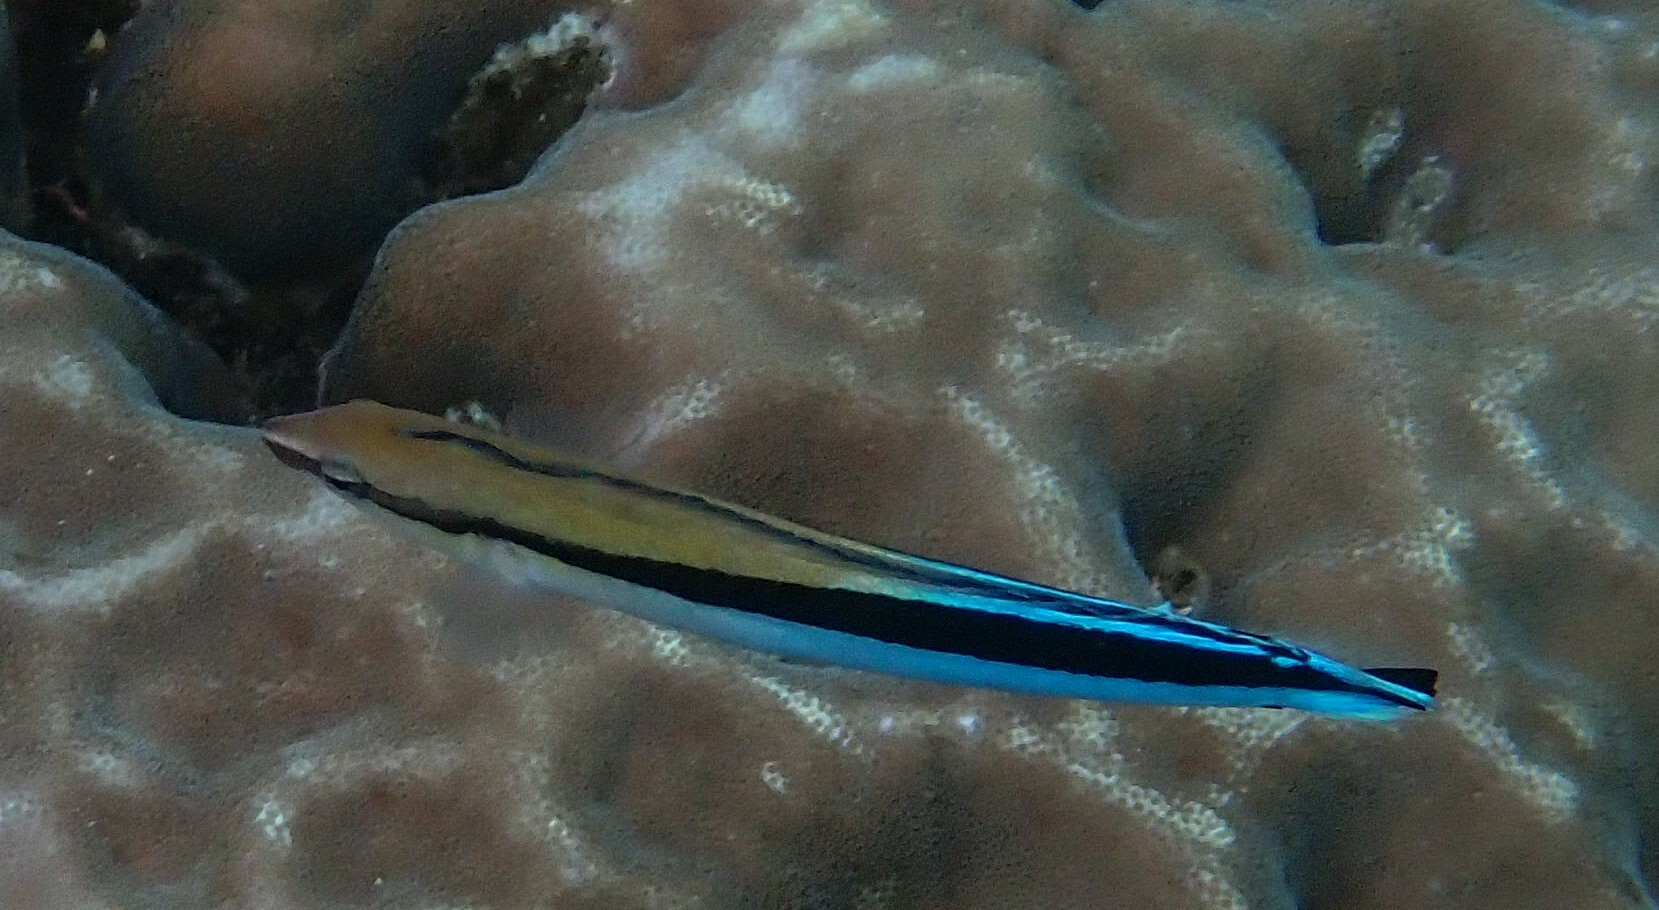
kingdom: Animalia
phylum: Chordata
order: Perciformes
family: Blenniidae
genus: Aspidontus
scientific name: Aspidontus taeniatus
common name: False cleanerfish
